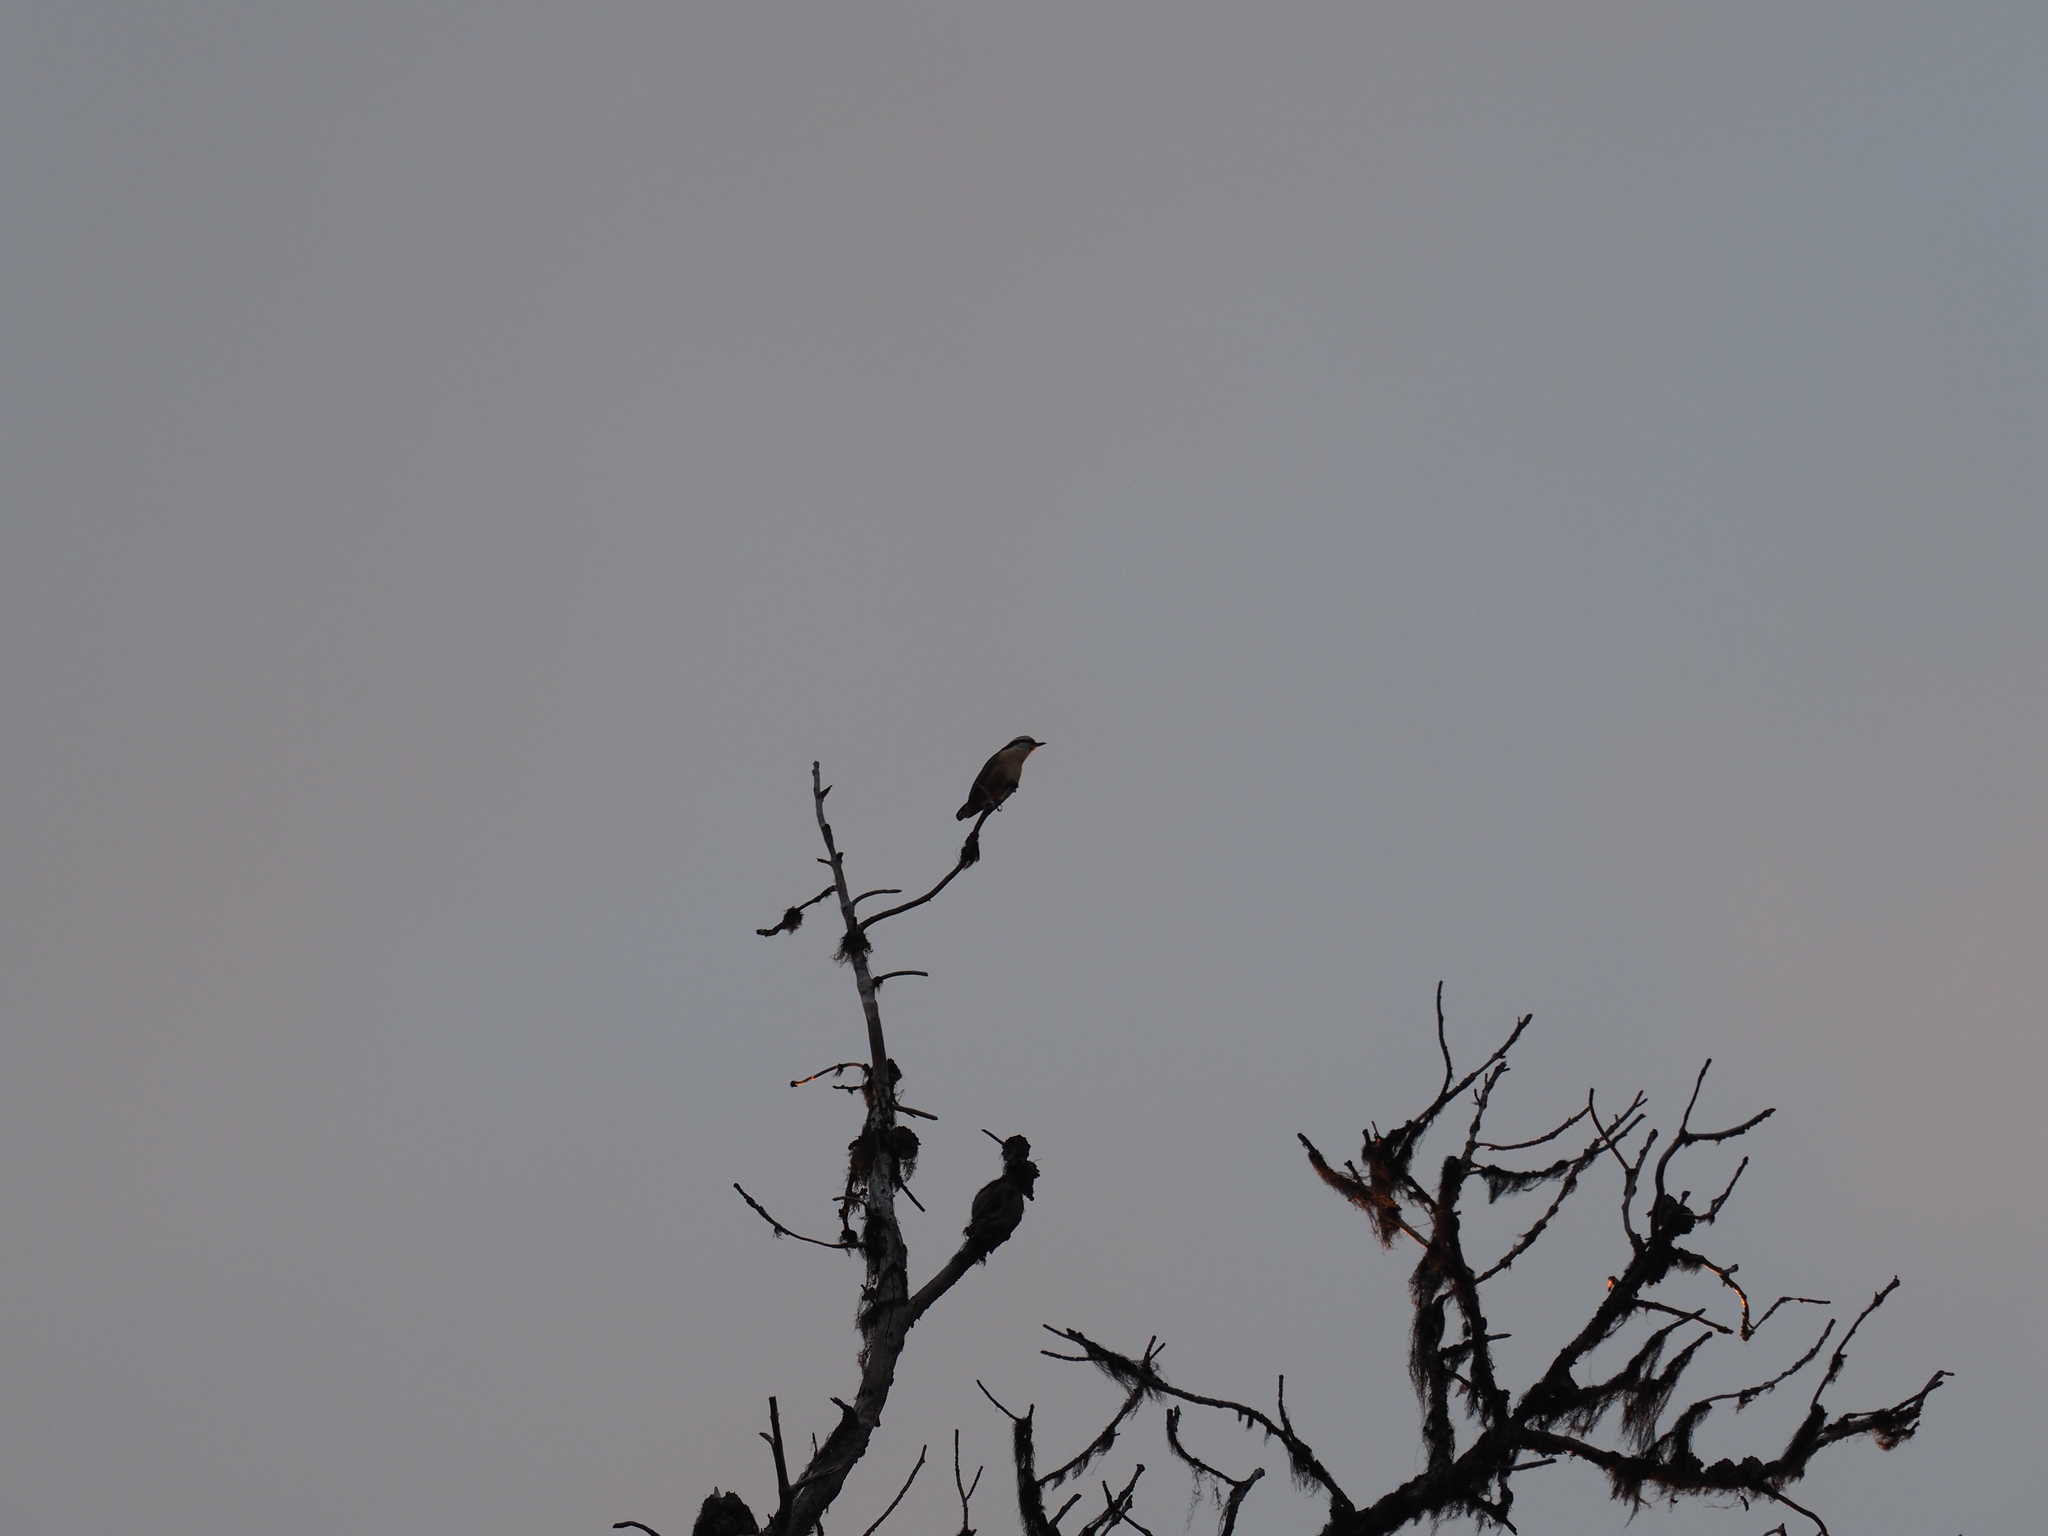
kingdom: Animalia
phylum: Chordata
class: Aves
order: Passeriformes
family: Sittidae
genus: Sitta
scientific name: Sitta canadensis
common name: Red-breasted nuthatch
